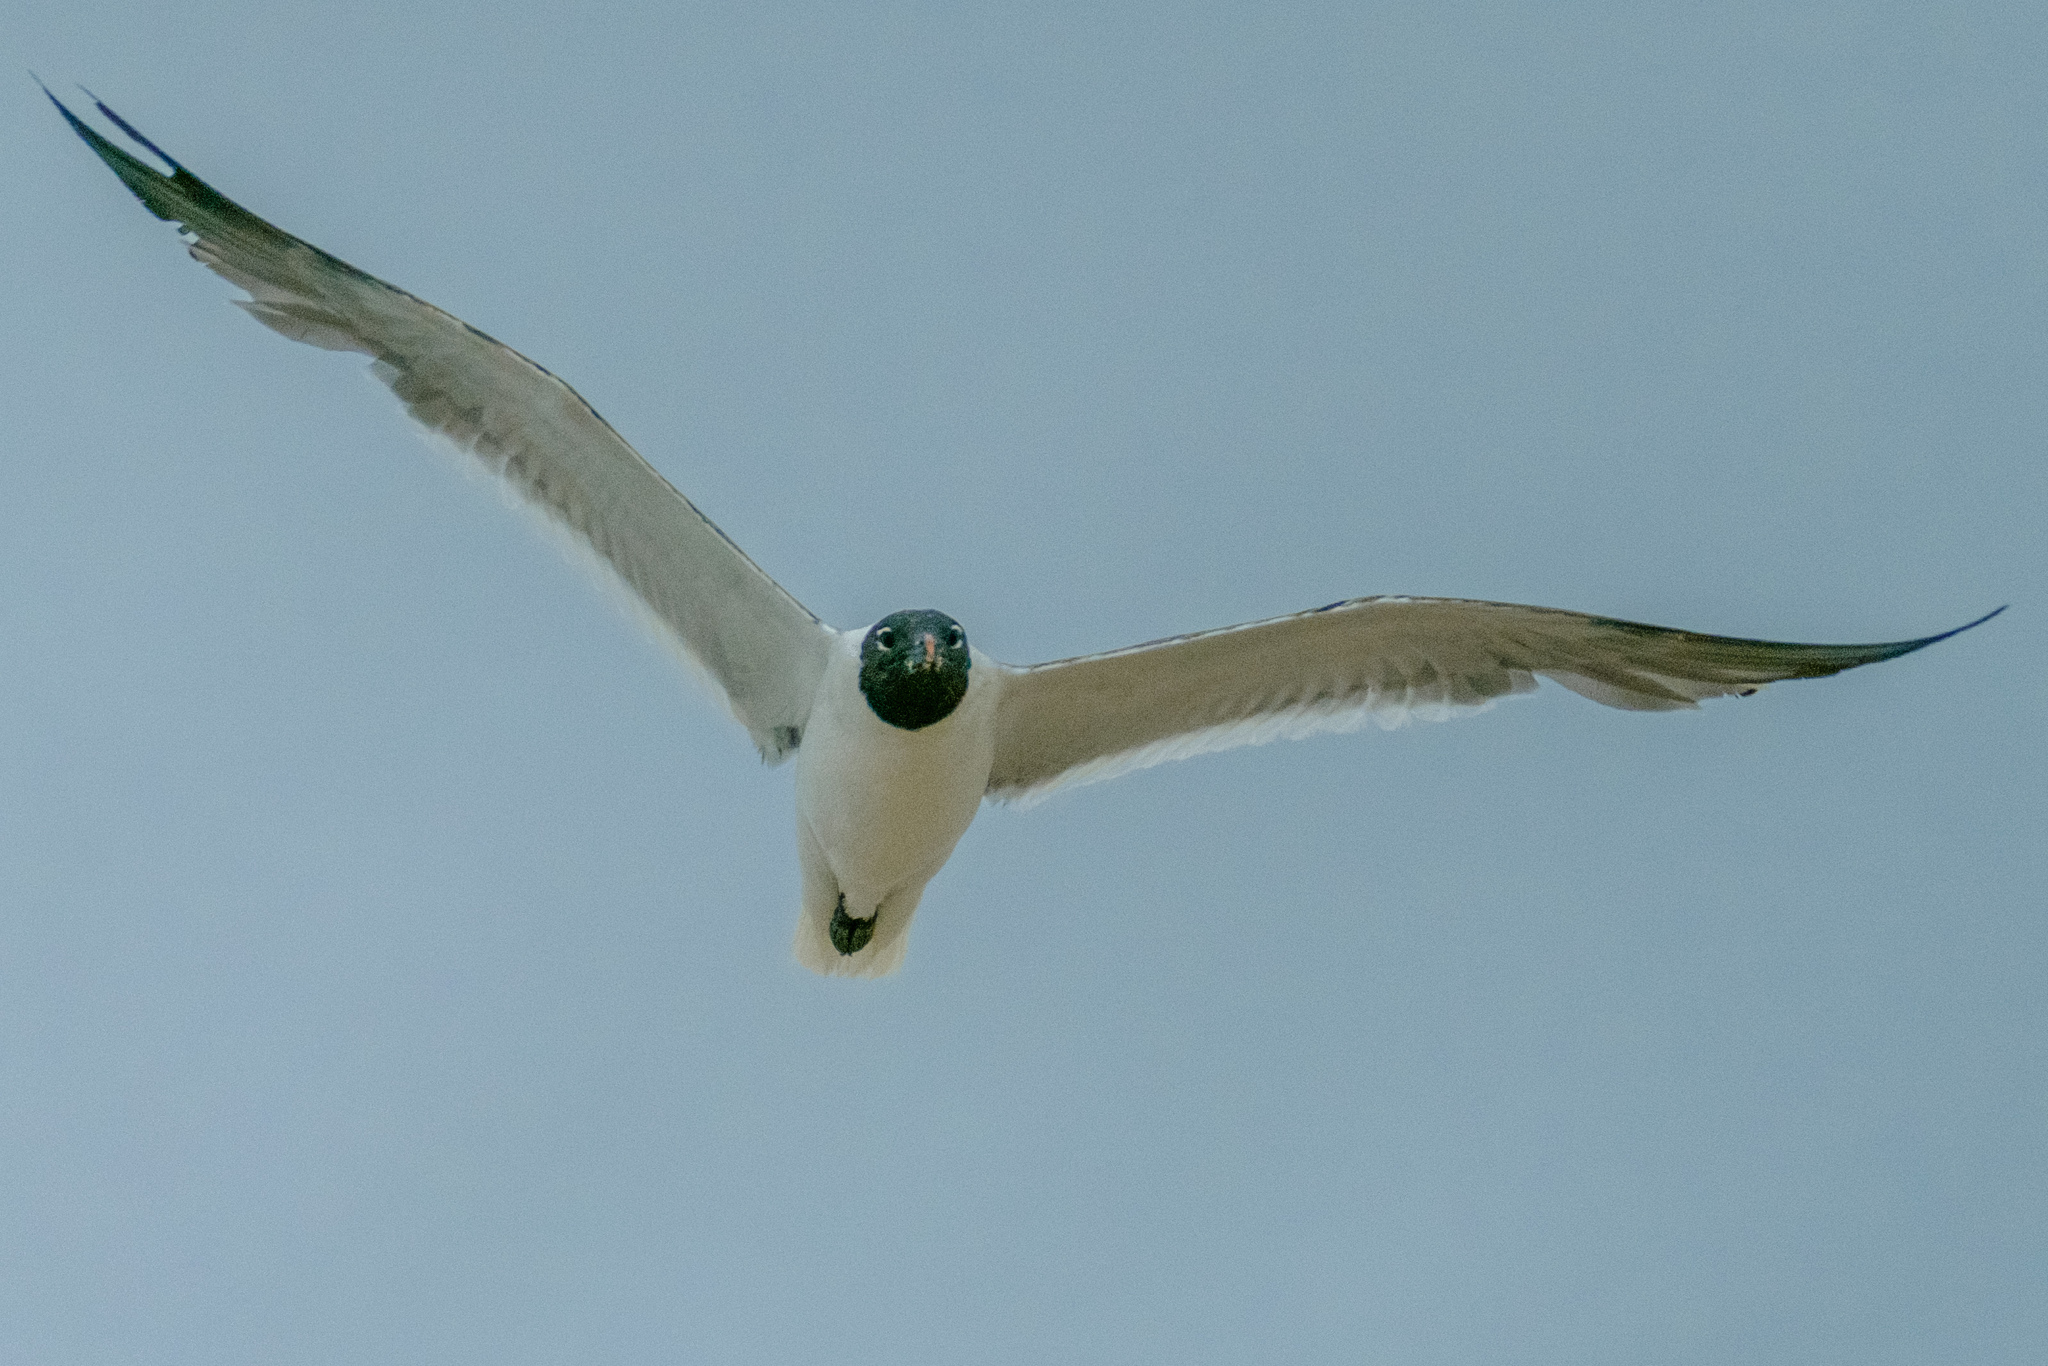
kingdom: Animalia
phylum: Chordata
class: Aves
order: Charadriiformes
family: Laridae
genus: Leucophaeus
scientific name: Leucophaeus atricilla
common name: Laughing gull
